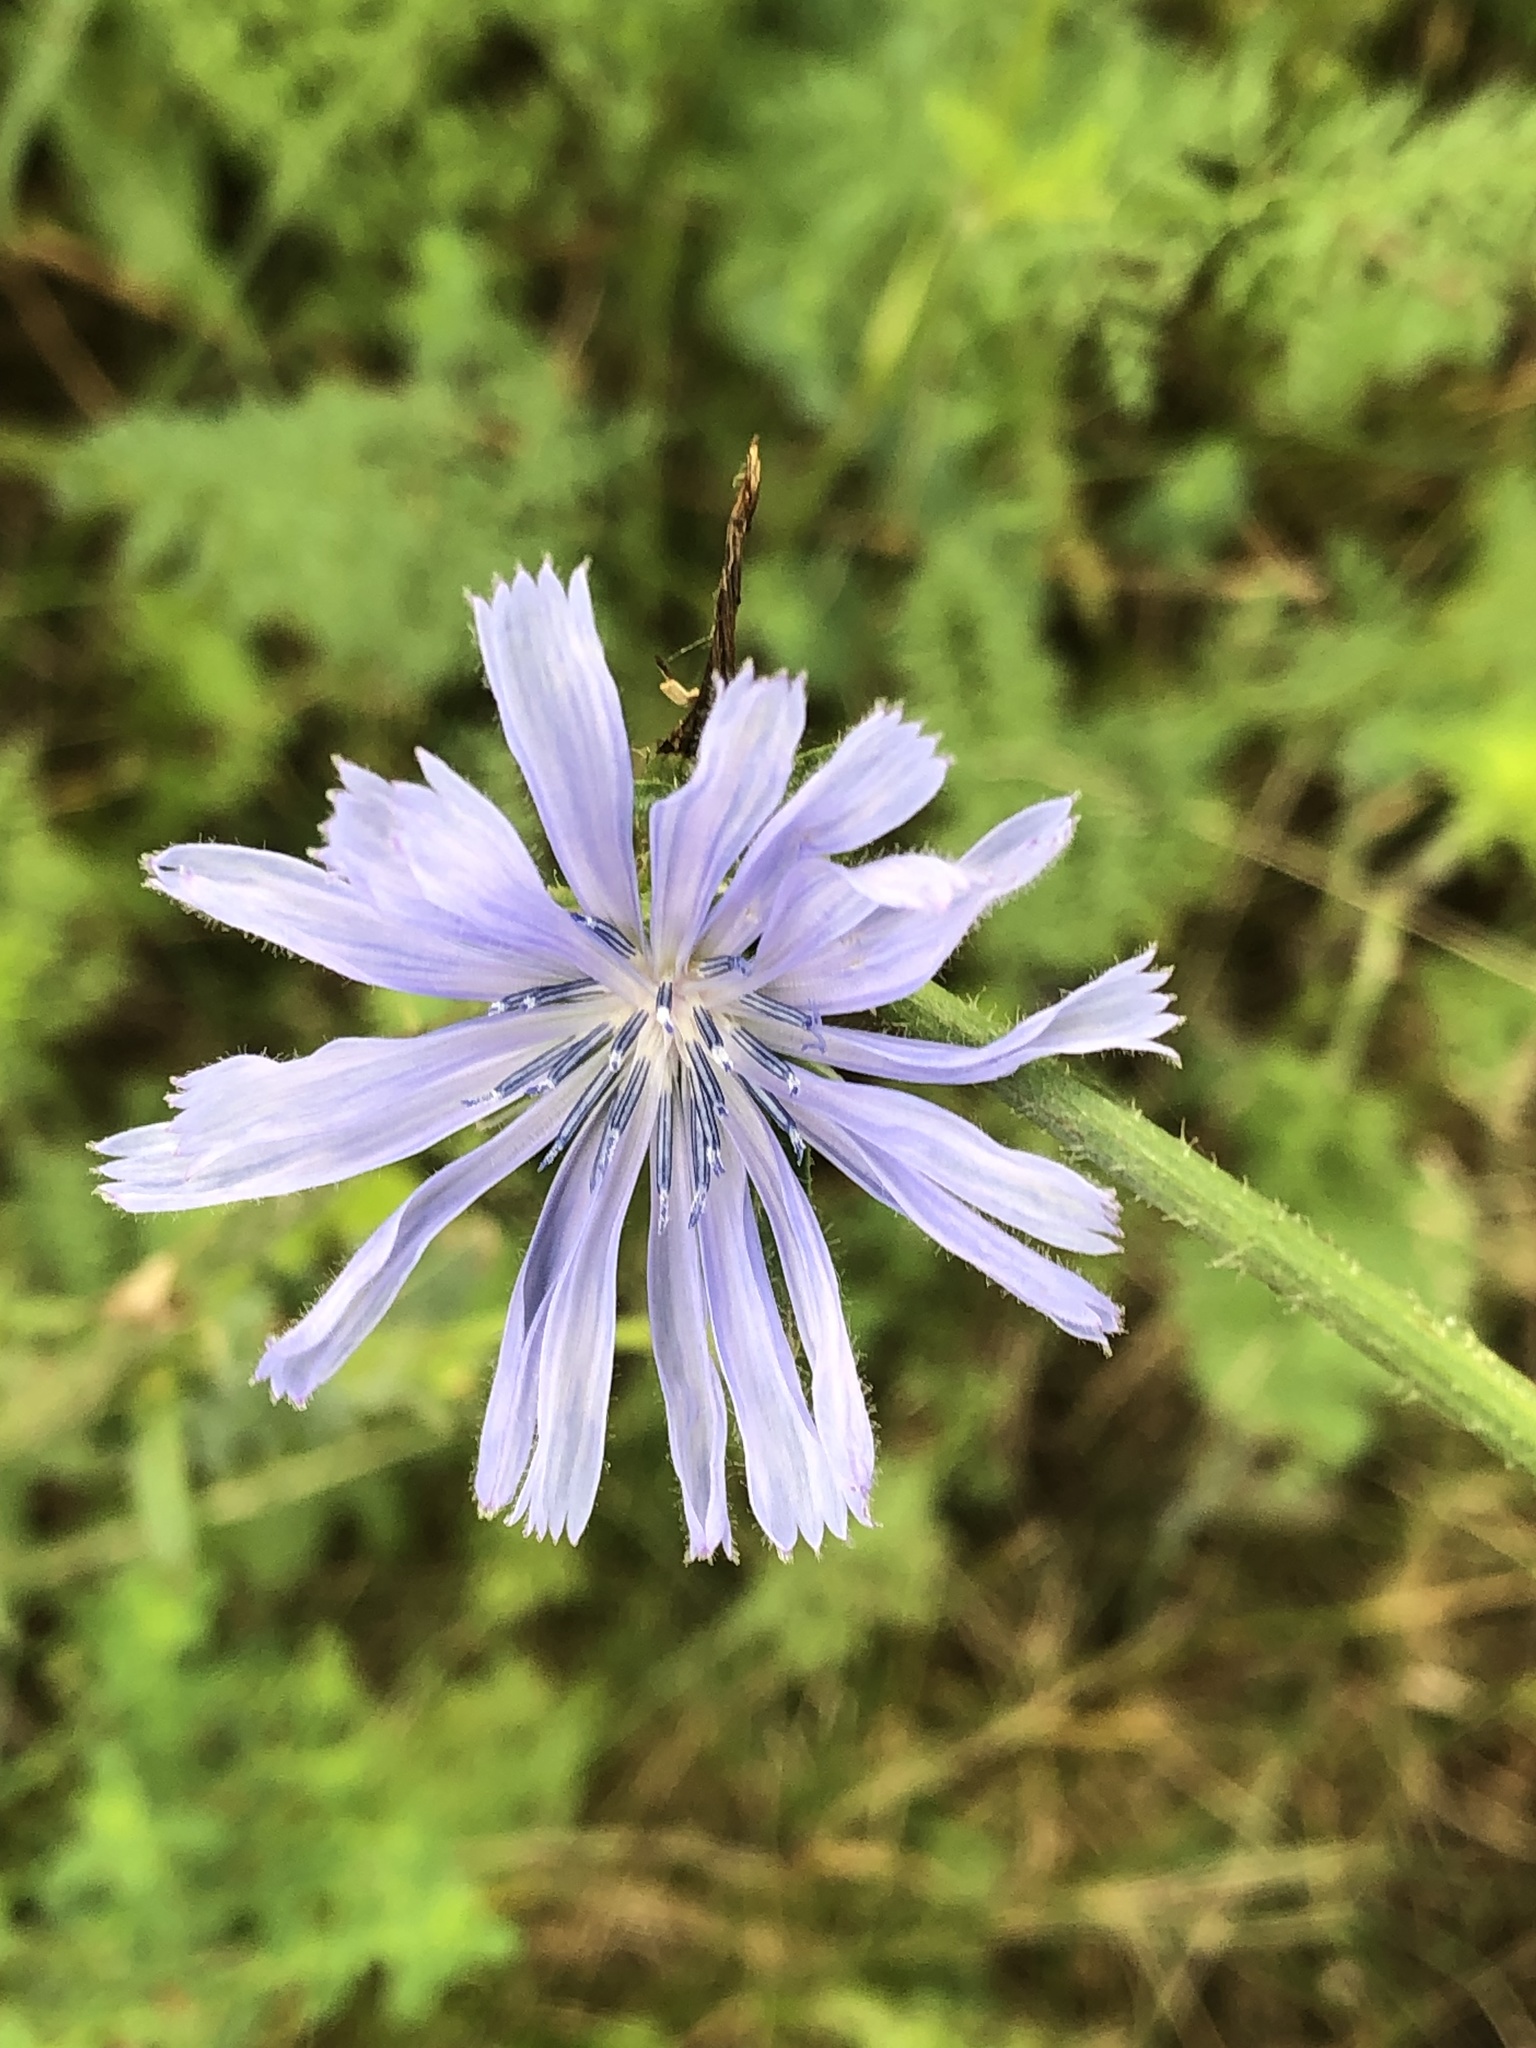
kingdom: Plantae
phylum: Tracheophyta
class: Magnoliopsida
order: Asterales
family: Asteraceae
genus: Cichorium
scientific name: Cichorium intybus
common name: Chicory
